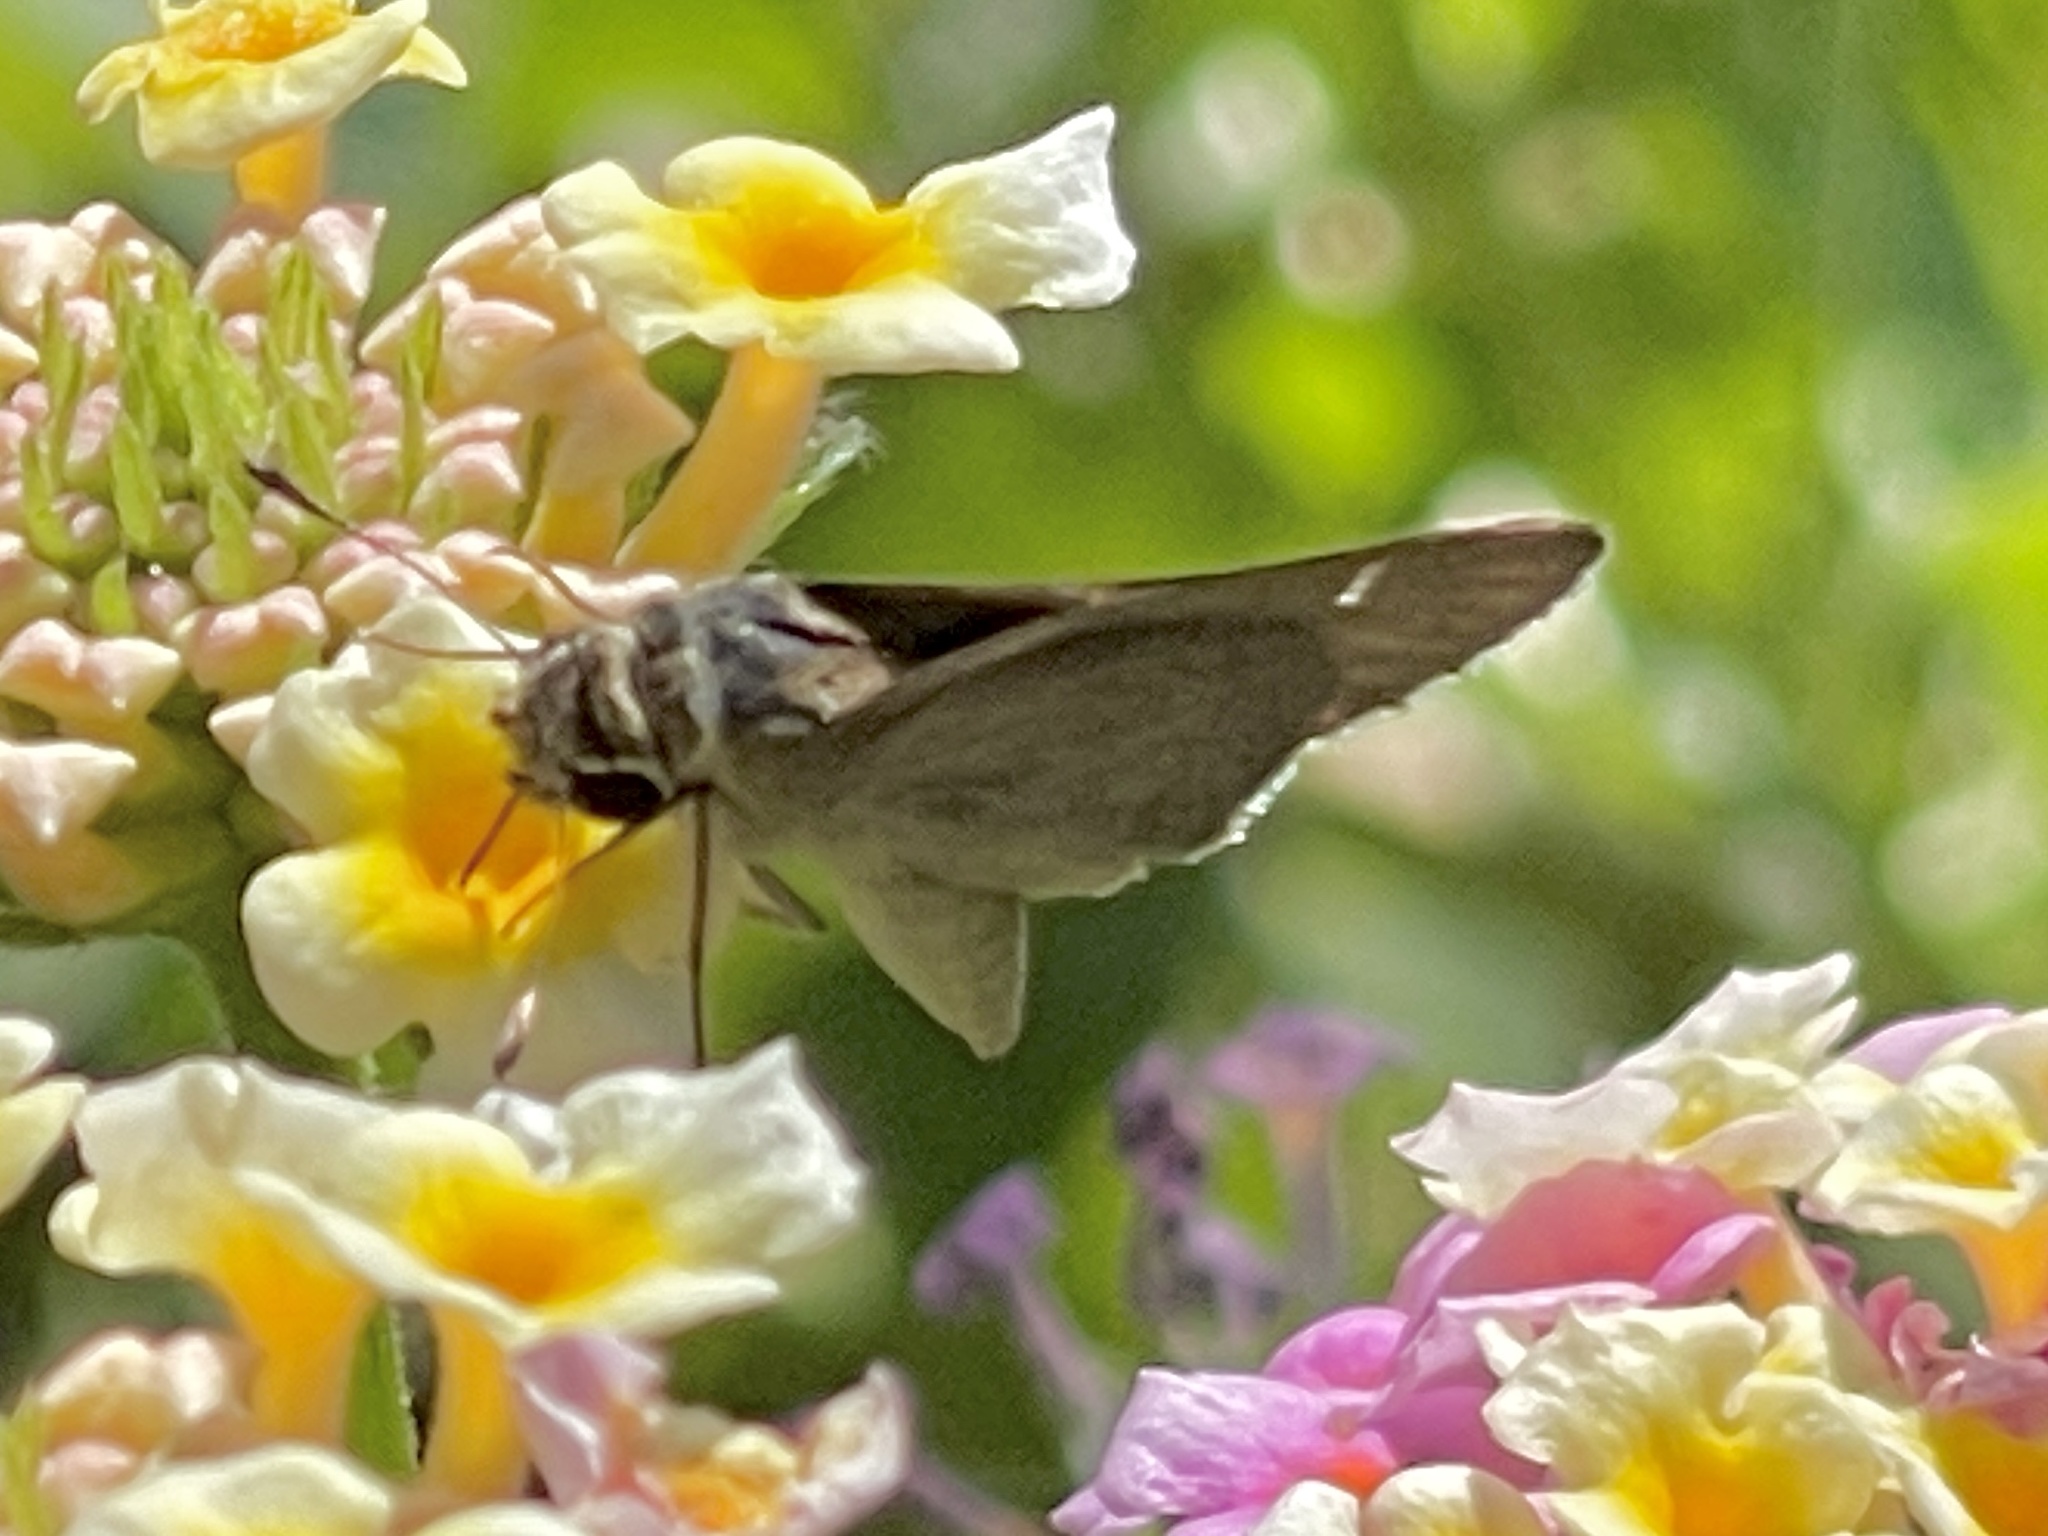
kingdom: Animalia
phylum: Arthropoda
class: Insecta
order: Lepidoptera
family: Hesperiidae
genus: Lerodea
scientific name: Lerodea eufala
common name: Eufala skipper
